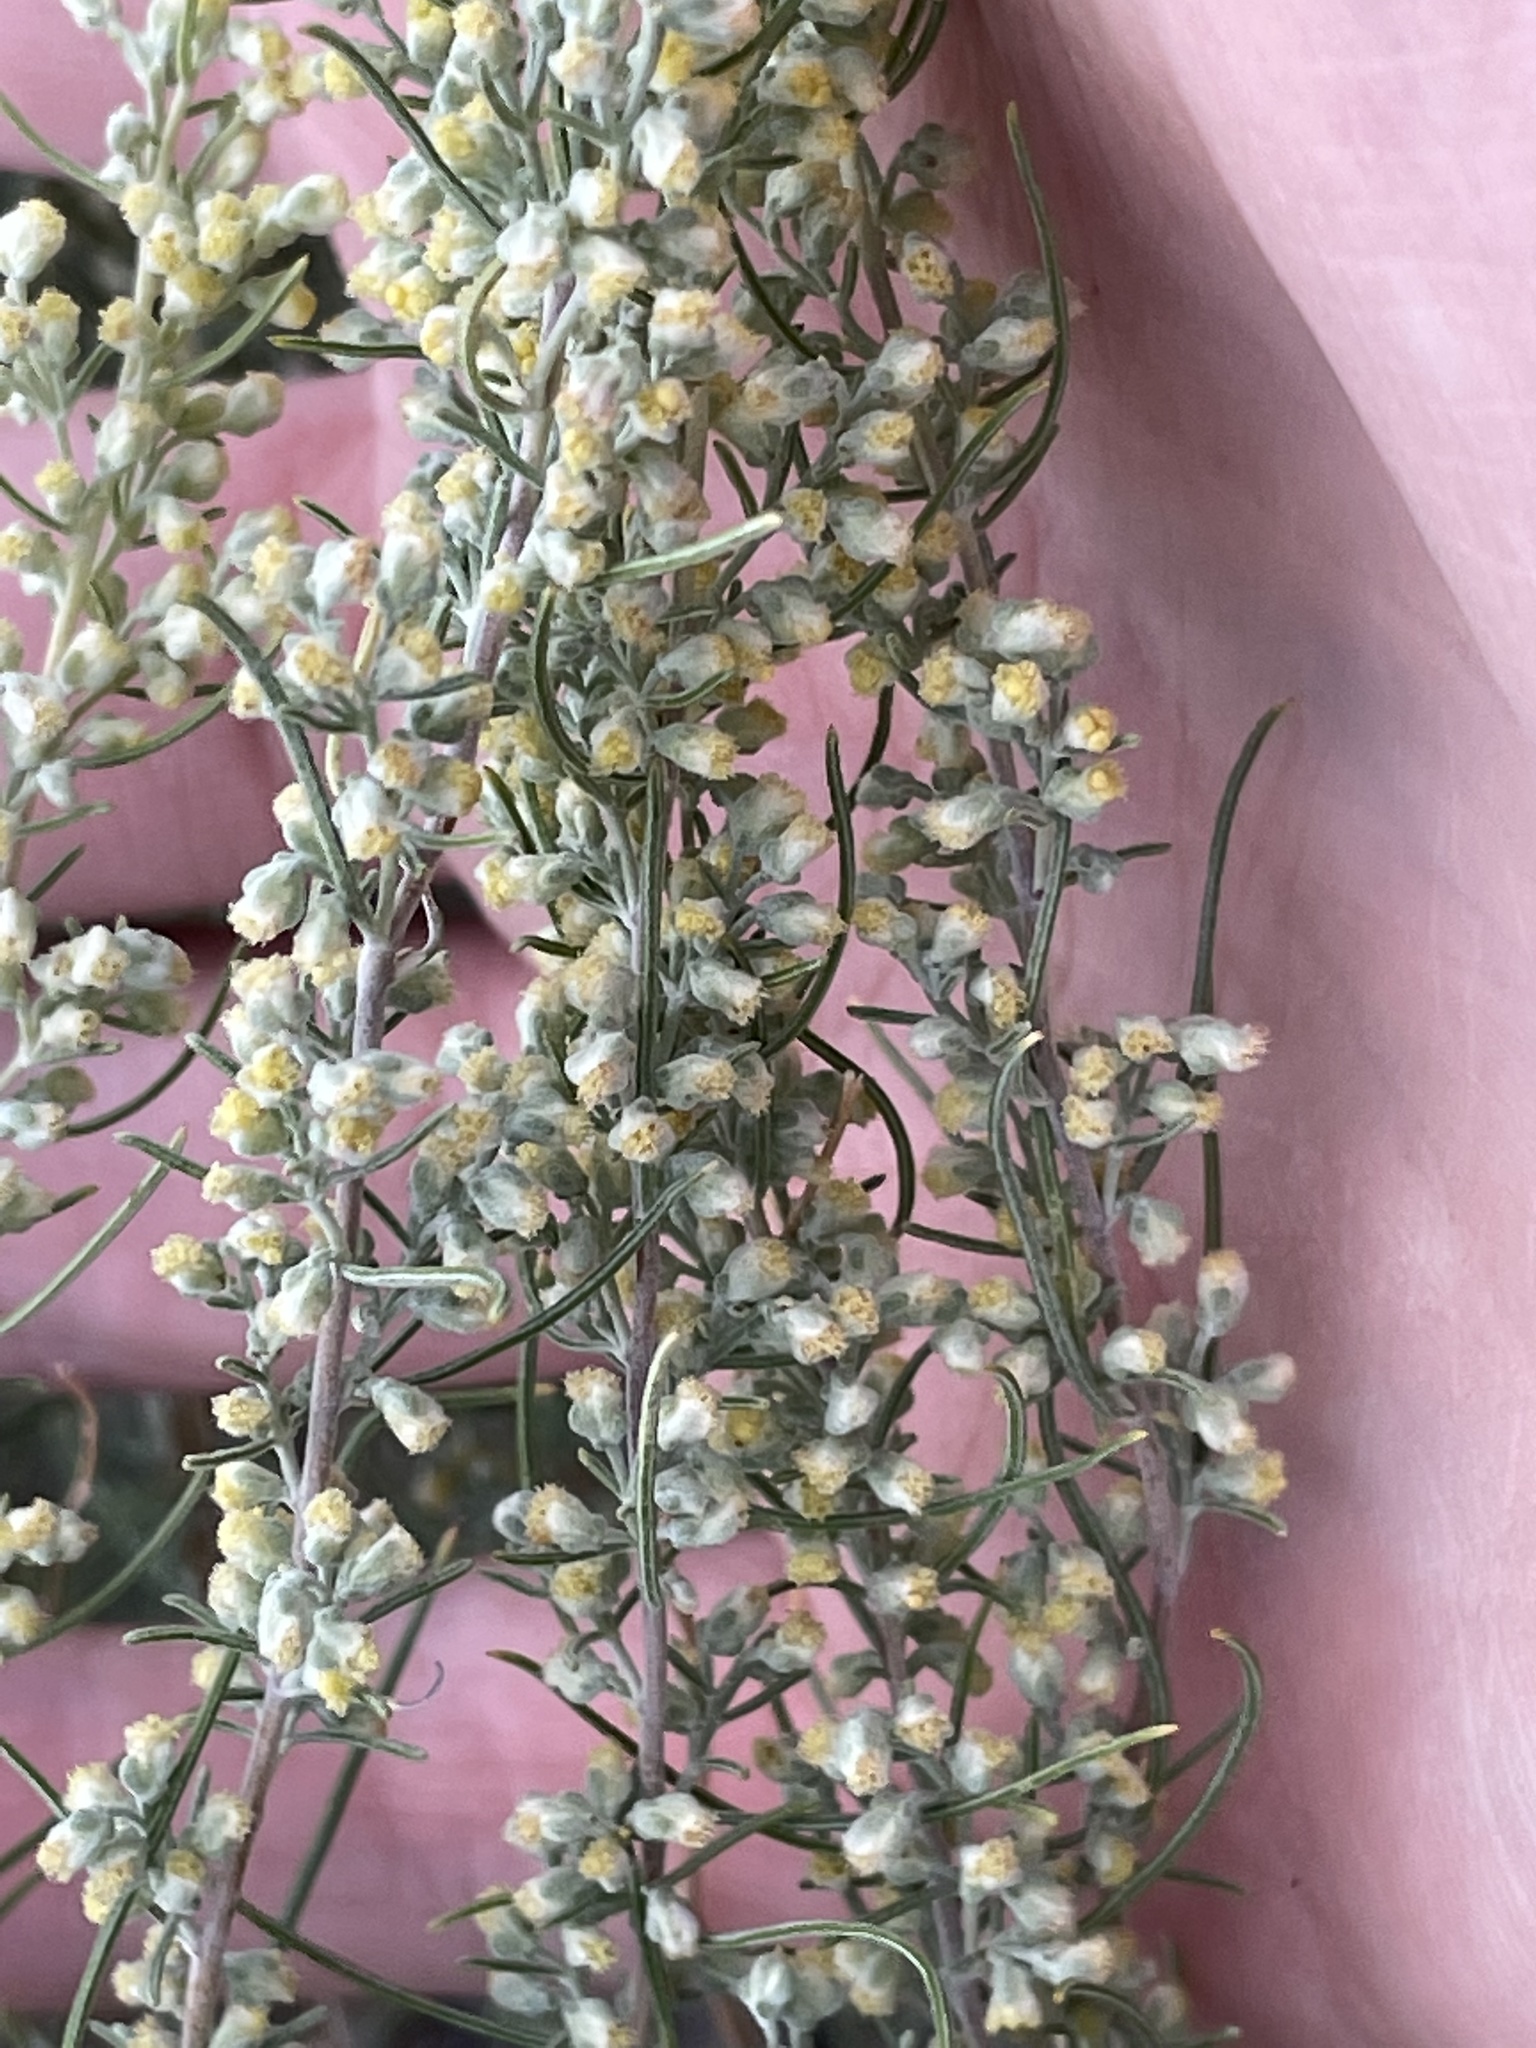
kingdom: Plantae
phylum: Tracheophyta
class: Magnoliopsida
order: Asterales
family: Asteraceae
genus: Artemisia
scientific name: Artemisia filifolia
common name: Sand-sage
